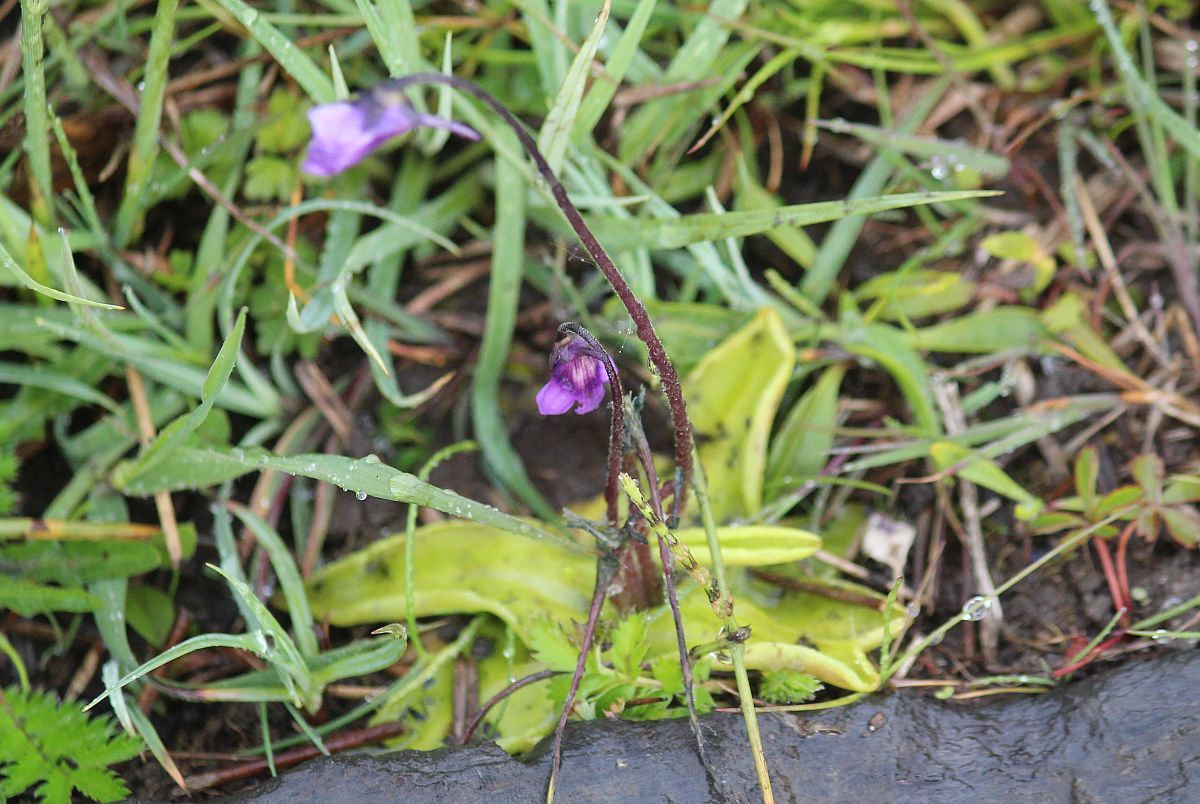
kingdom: Plantae
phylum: Tracheophyta
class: Magnoliopsida
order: Lamiales
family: Lentibulariaceae
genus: Pinguicula
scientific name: Pinguicula vulgaris
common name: Common butterwort
